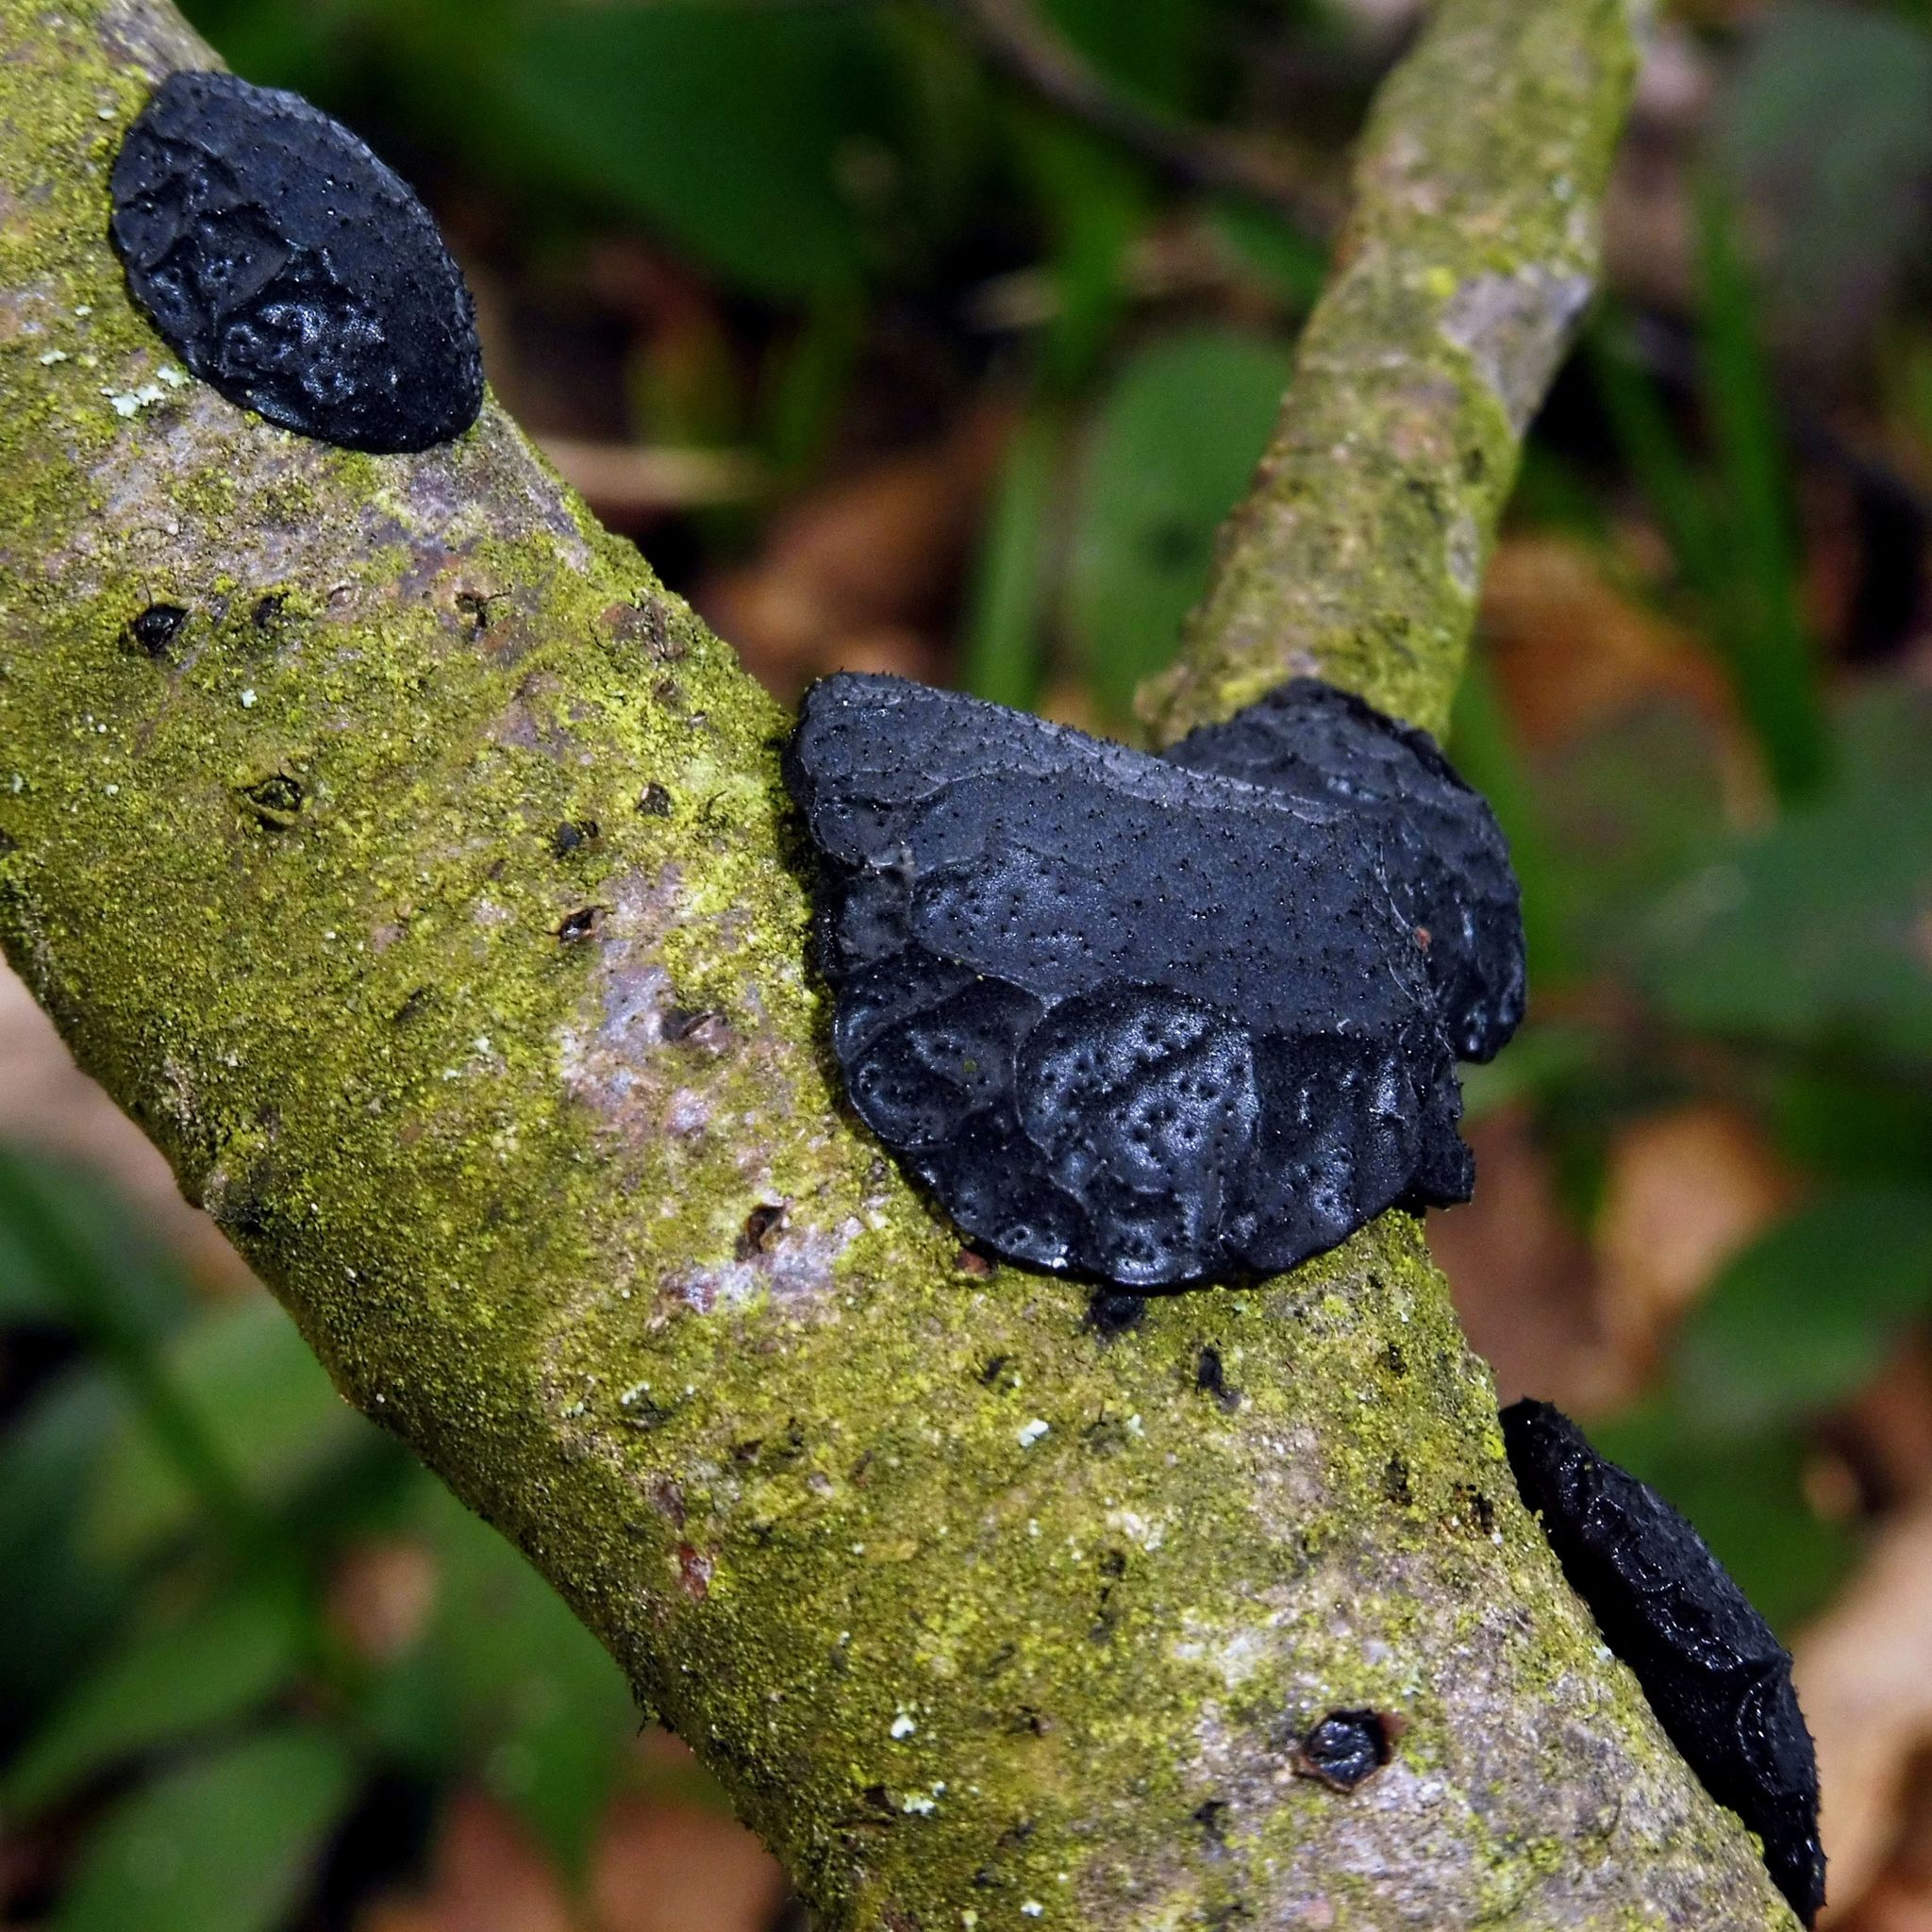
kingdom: Fungi
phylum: Basidiomycota
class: Agaricomycetes
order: Auriculariales
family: Auriculariaceae
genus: Exidia
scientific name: Exidia glandulosa
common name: Witches' butter
